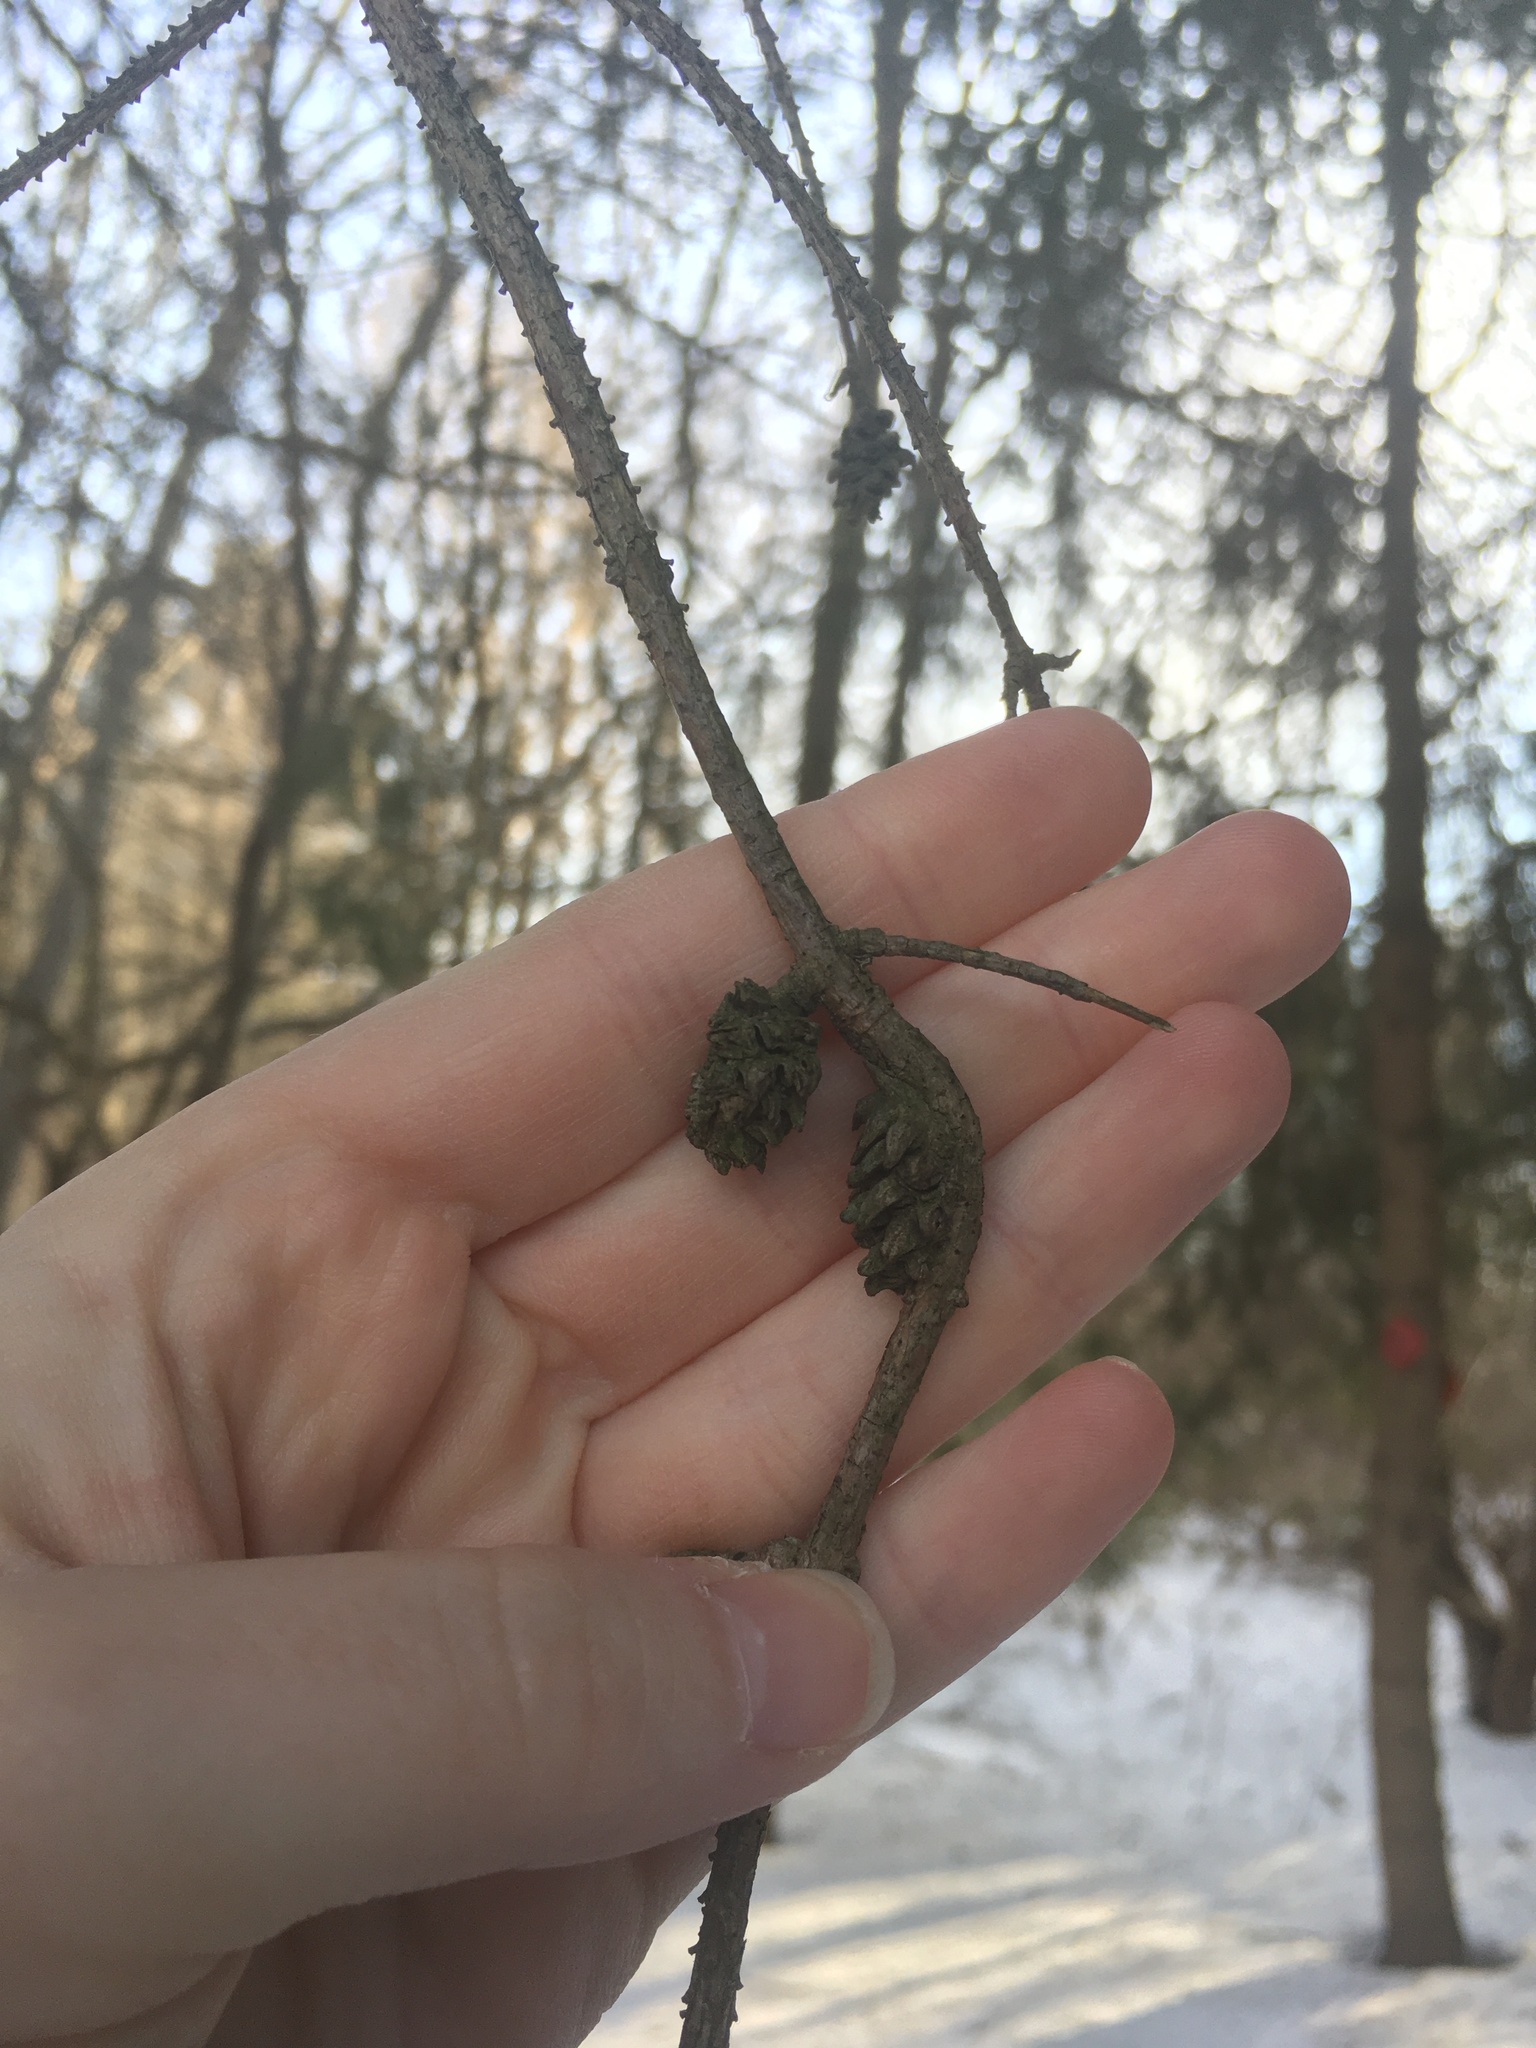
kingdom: Animalia
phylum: Arthropoda
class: Insecta
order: Hemiptera
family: Adelgidae
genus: Adelges
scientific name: Adelges abietis
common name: Eastern spruce gall adelgid
